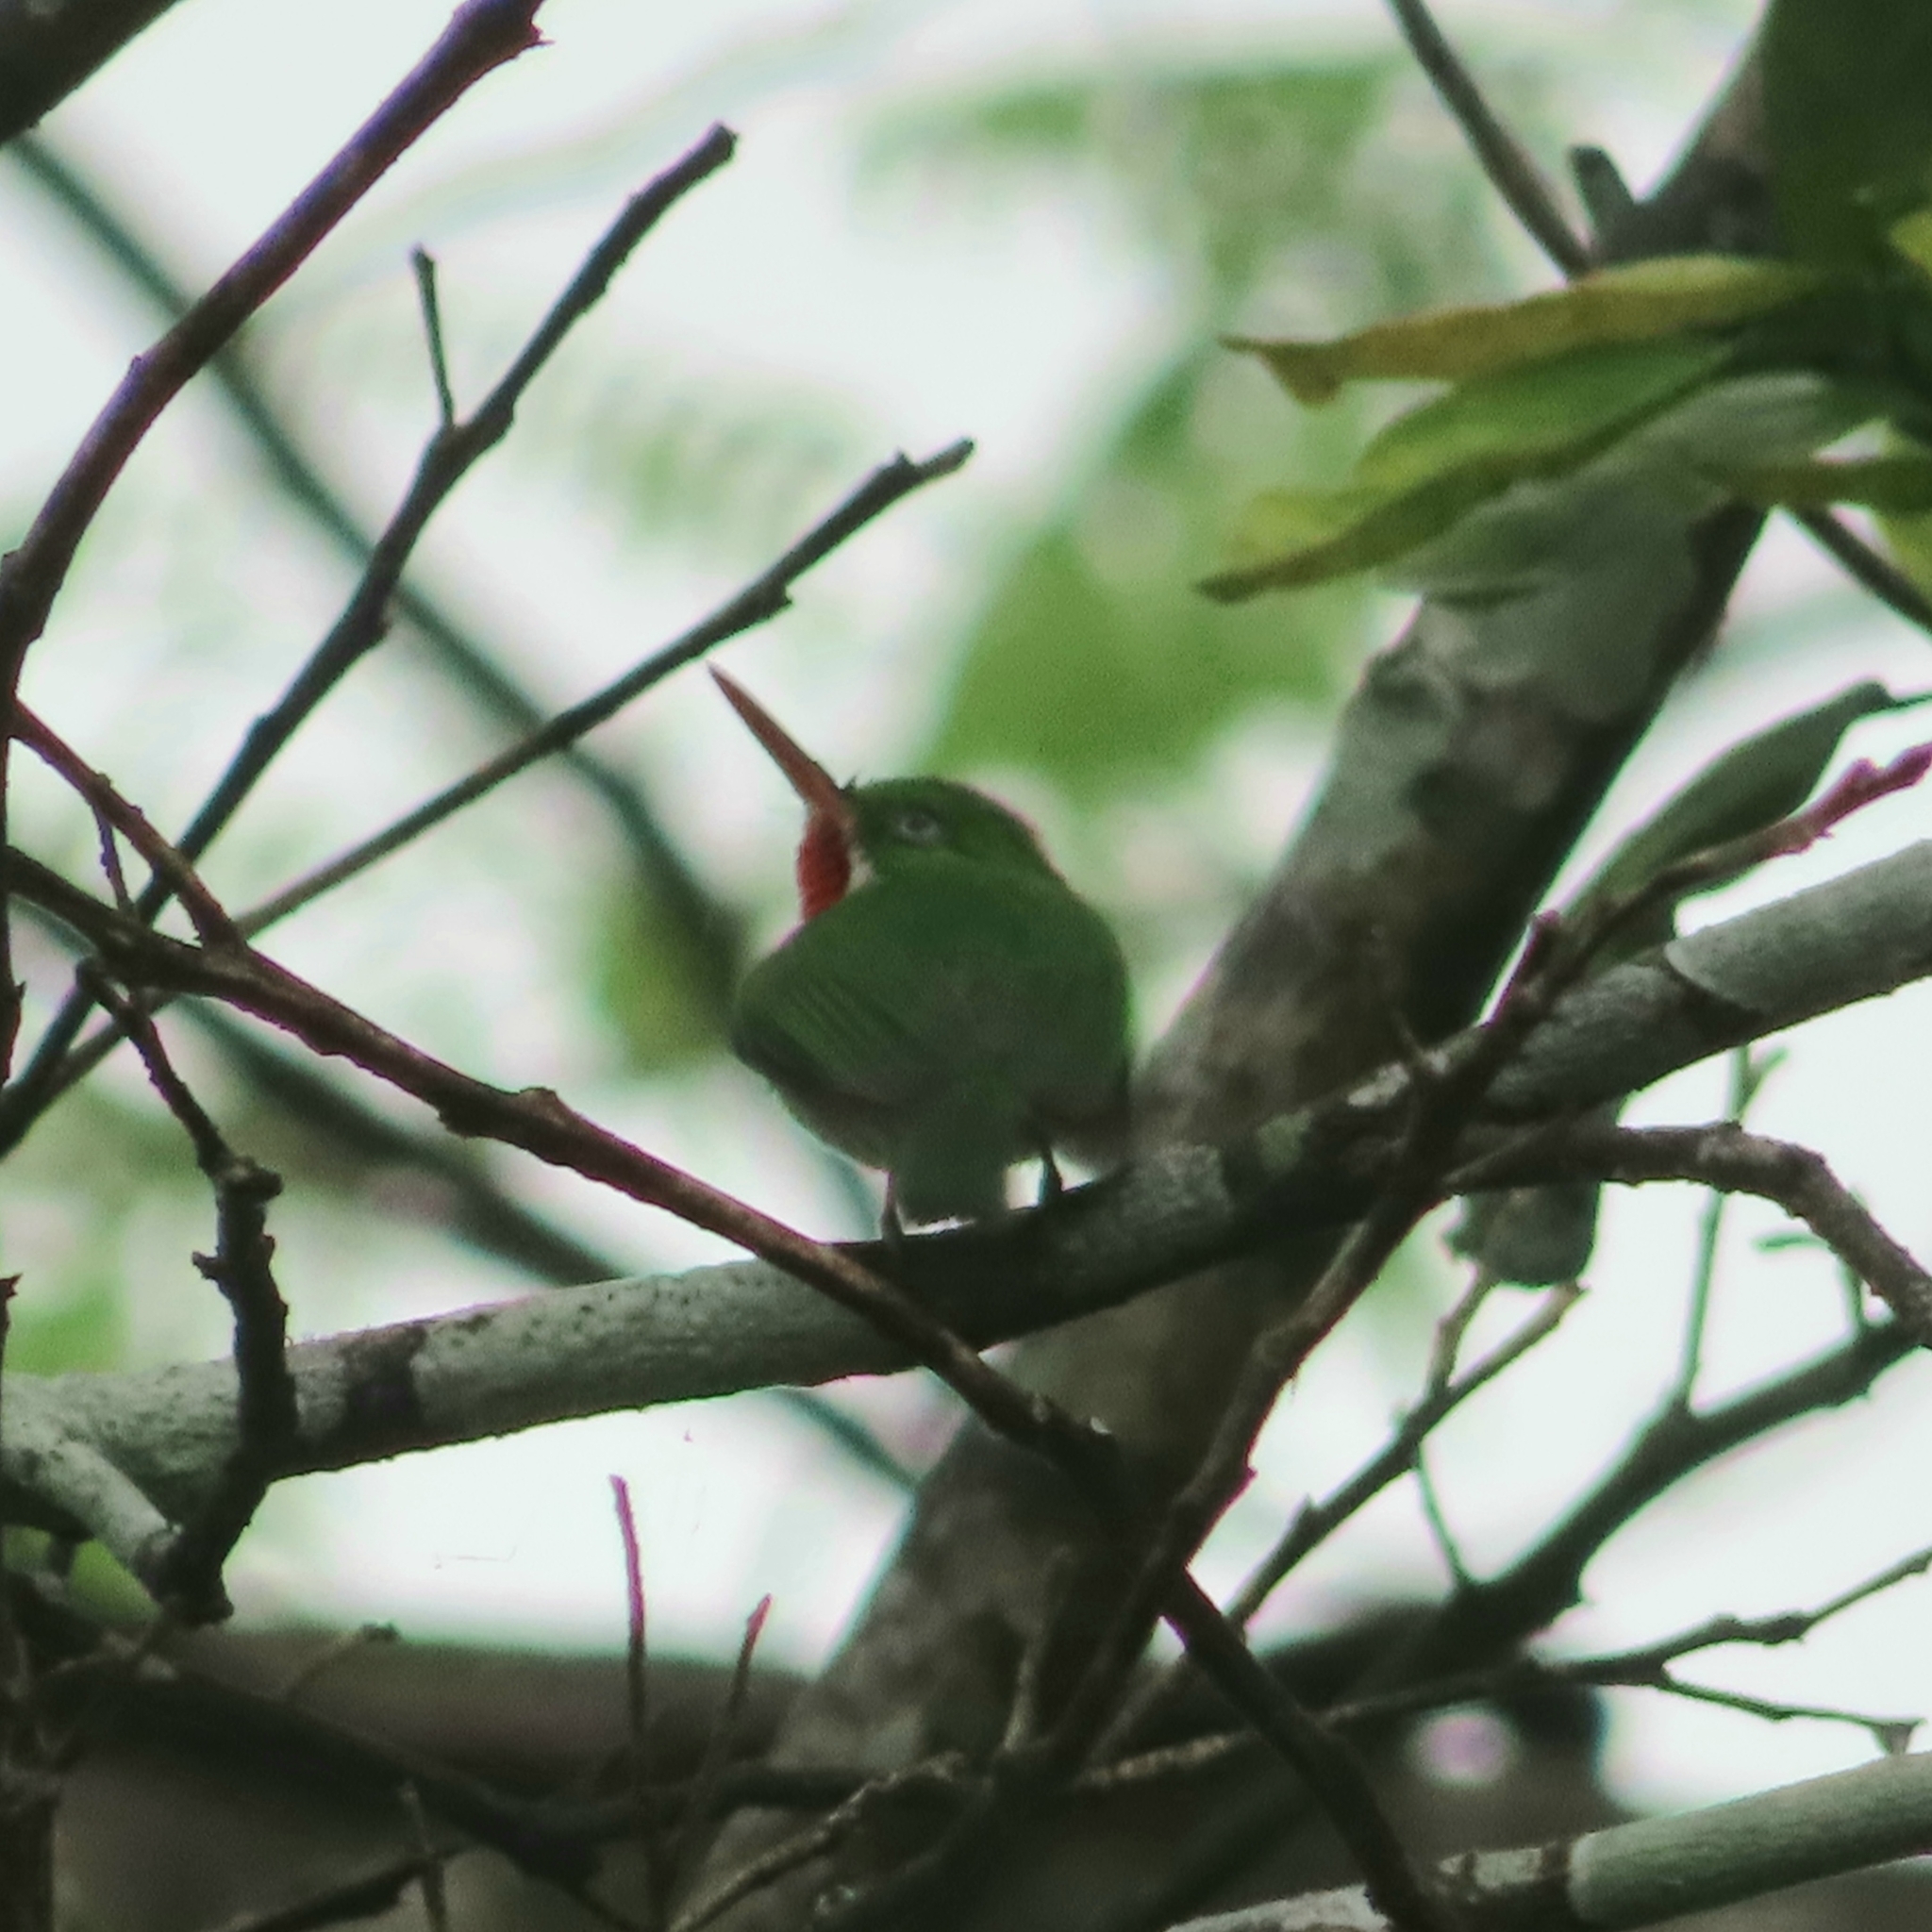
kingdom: Animalia
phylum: Chordata
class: Aves
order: Coraciiformes
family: Todidae
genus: Todus
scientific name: Todus mexicanus
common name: Puerto rican tody
